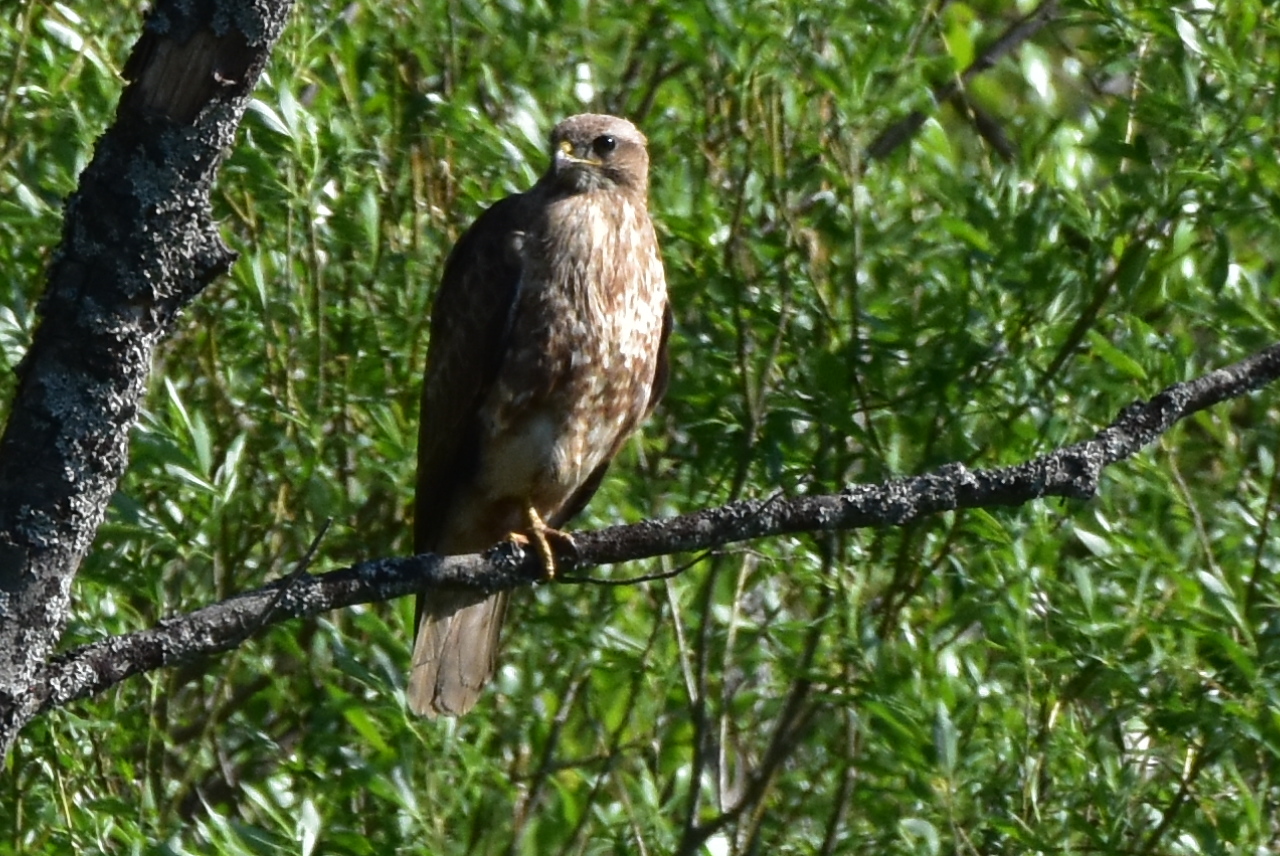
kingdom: Animalia
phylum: Chordata
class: Aves
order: Accipitriformes
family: Accipitridae
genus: Buteo
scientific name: Buteo buteo
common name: Common buzzard
